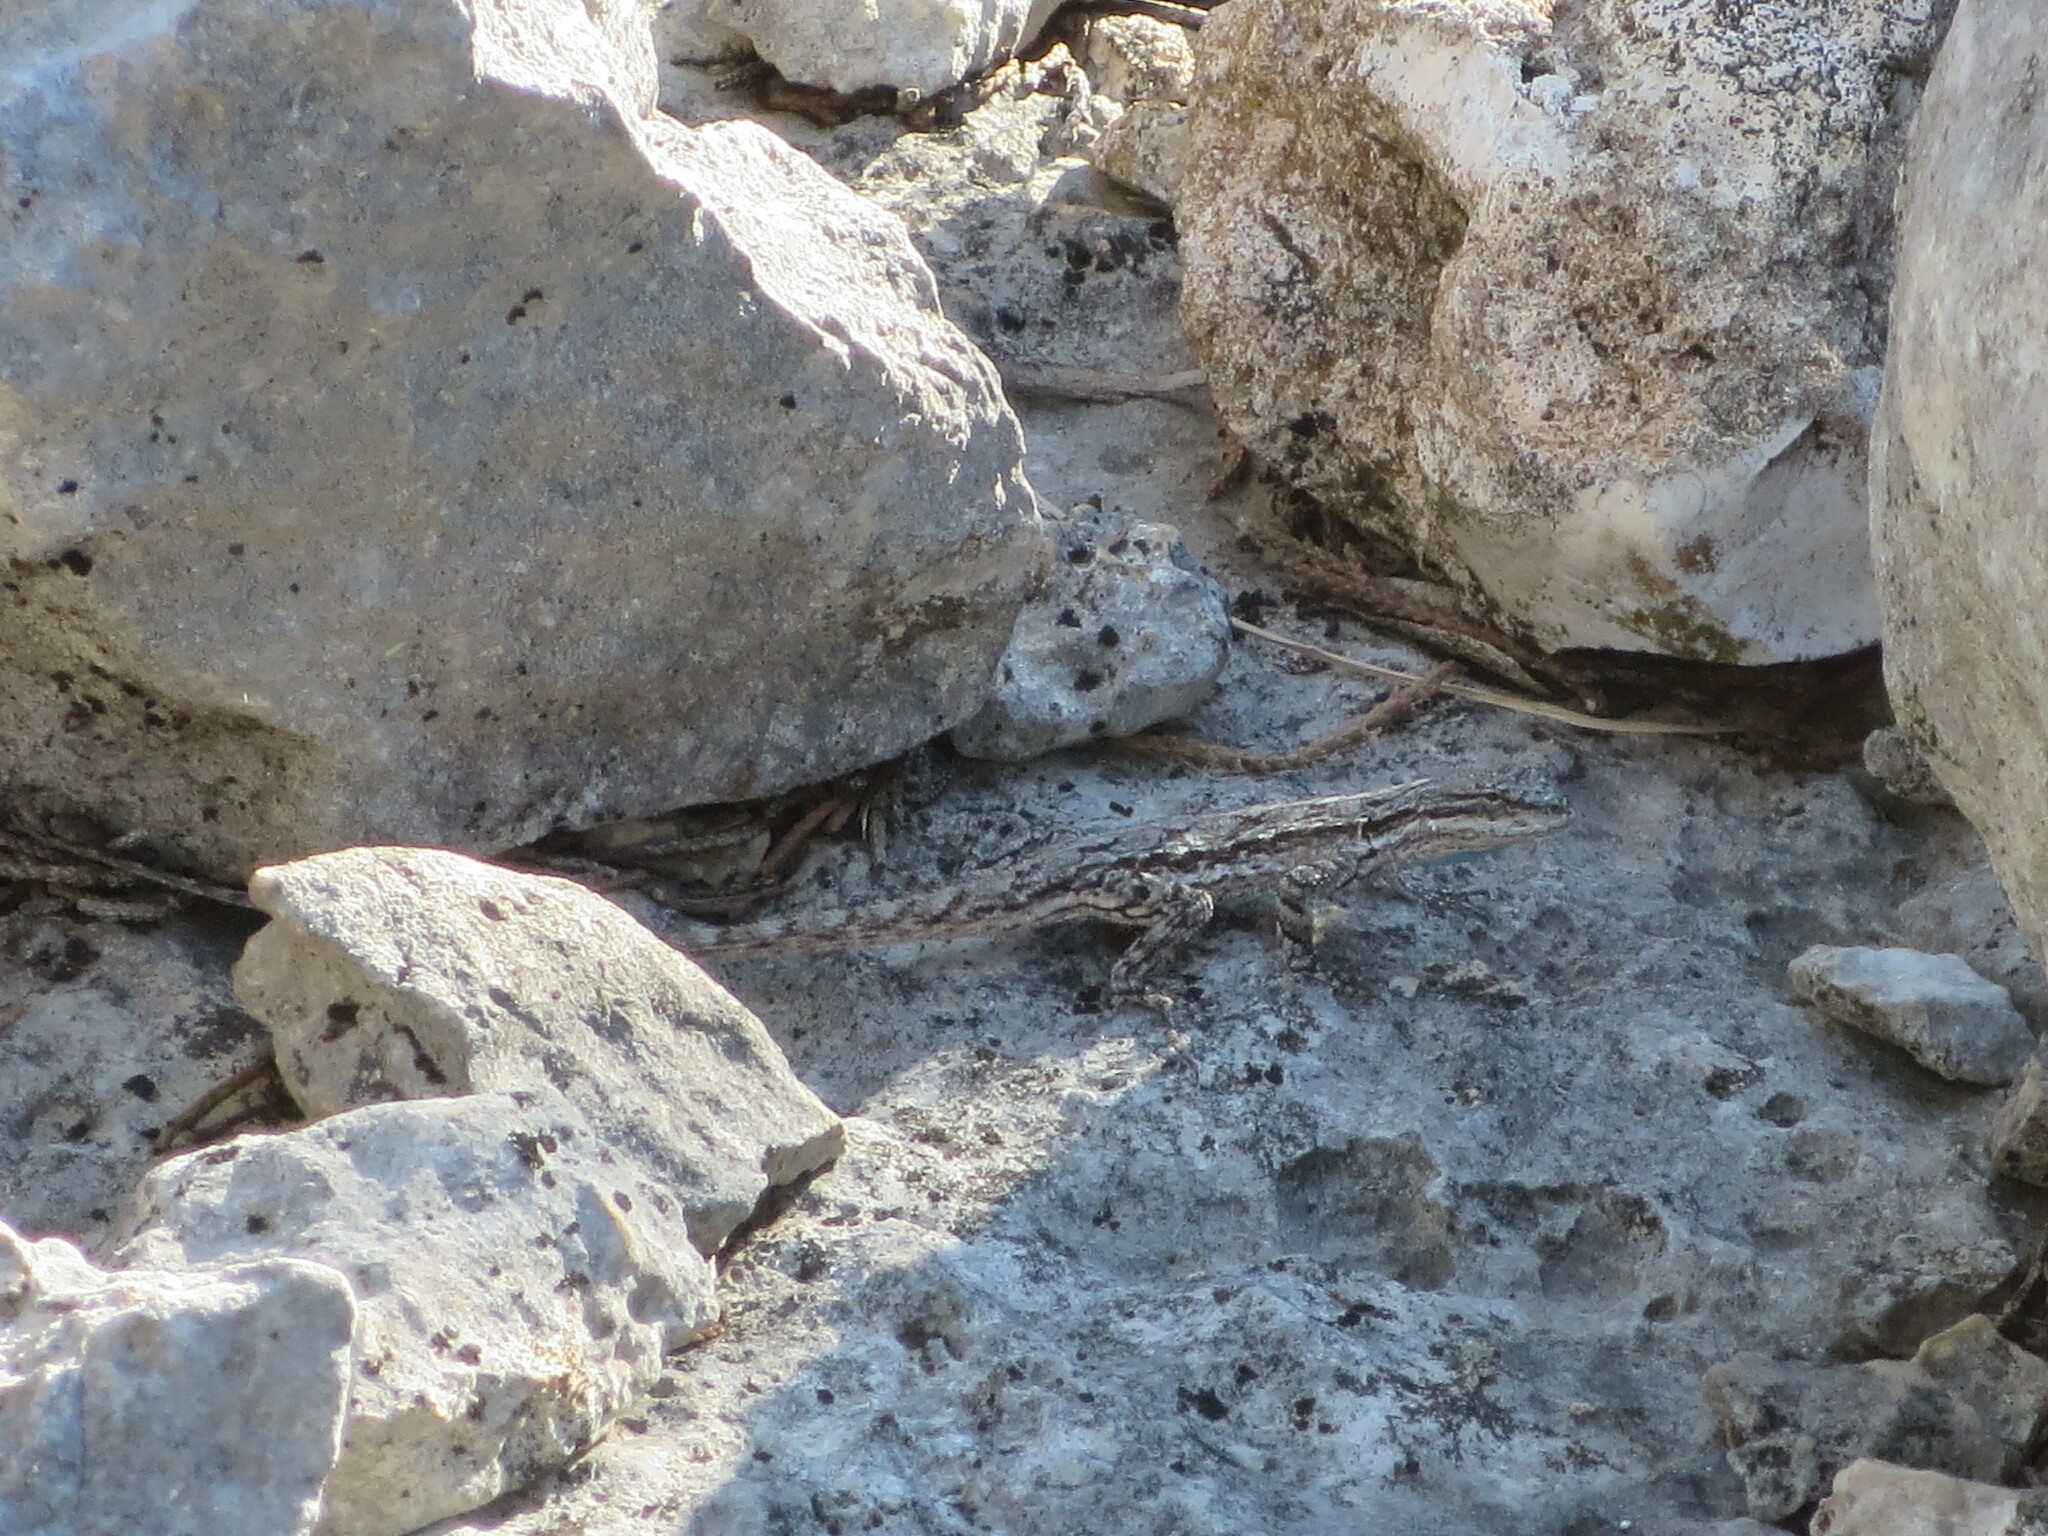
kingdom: Animalia
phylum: Chordata
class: Squamata
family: Phrynosomatidae
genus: Urosaurus
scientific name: Urosaurus ornatus
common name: Ornate tree lizard
